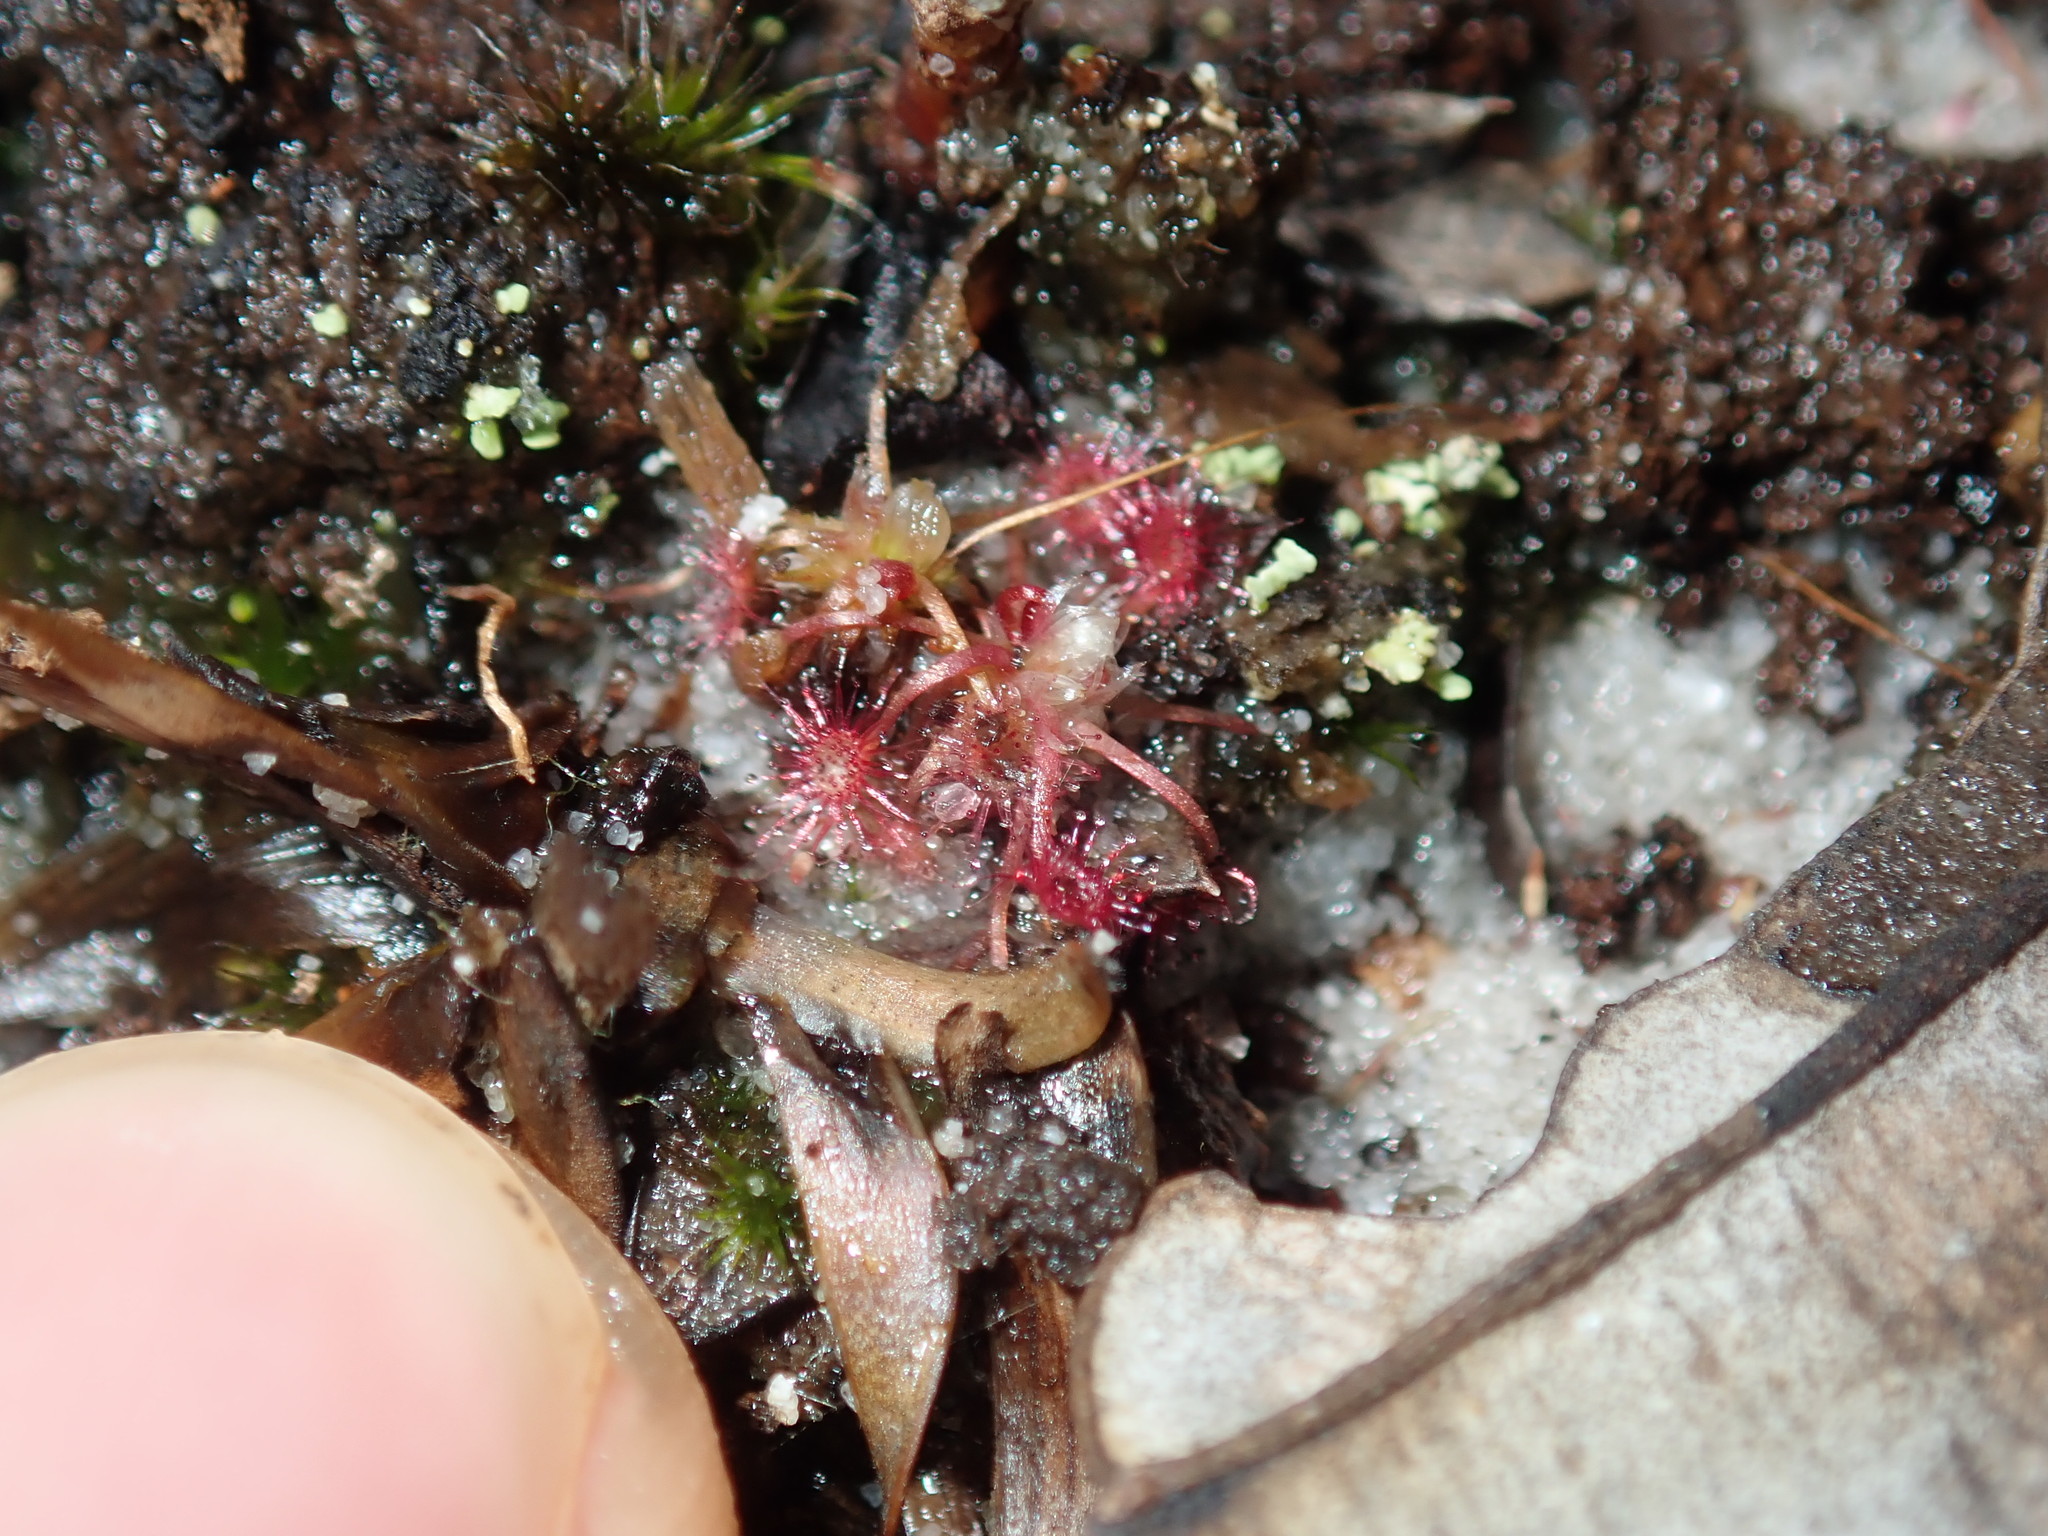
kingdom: Plantae
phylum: Tracheophyta
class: Magnoliopsida
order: Caryophyllales
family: Droseraceae
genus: Drosera
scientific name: Drosera pygmaea
